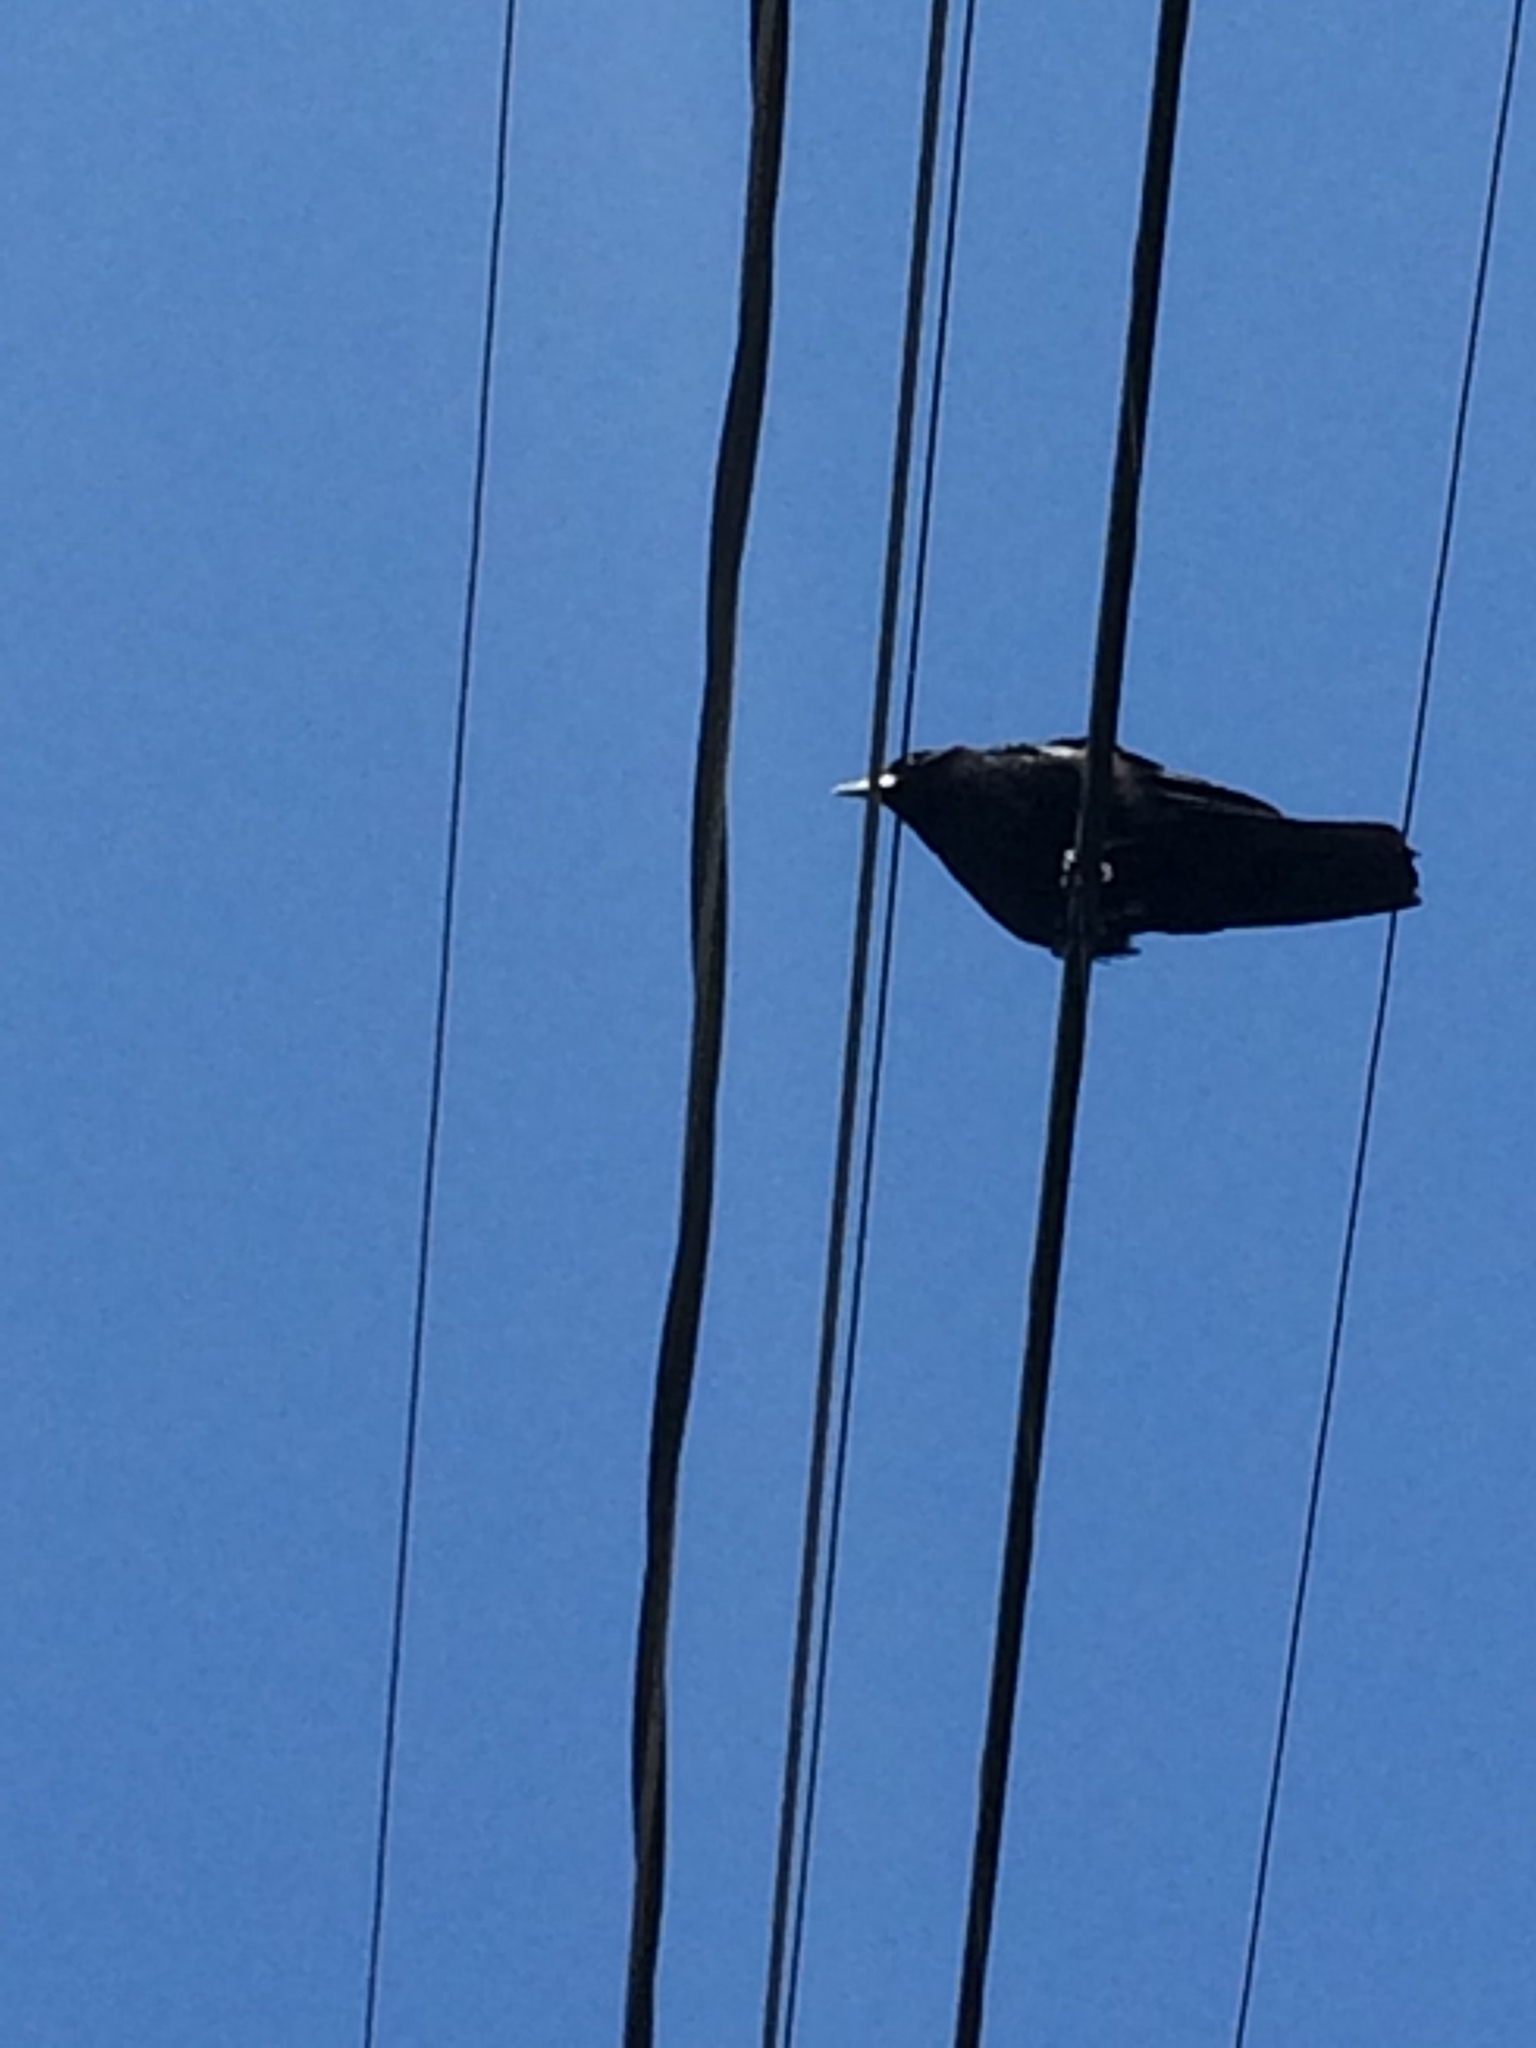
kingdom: Animalia
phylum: Chordata
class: Aves
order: Passeriformes
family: Corvidae
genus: Corvus
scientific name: Corvus brachyrhynchos
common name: American crow
